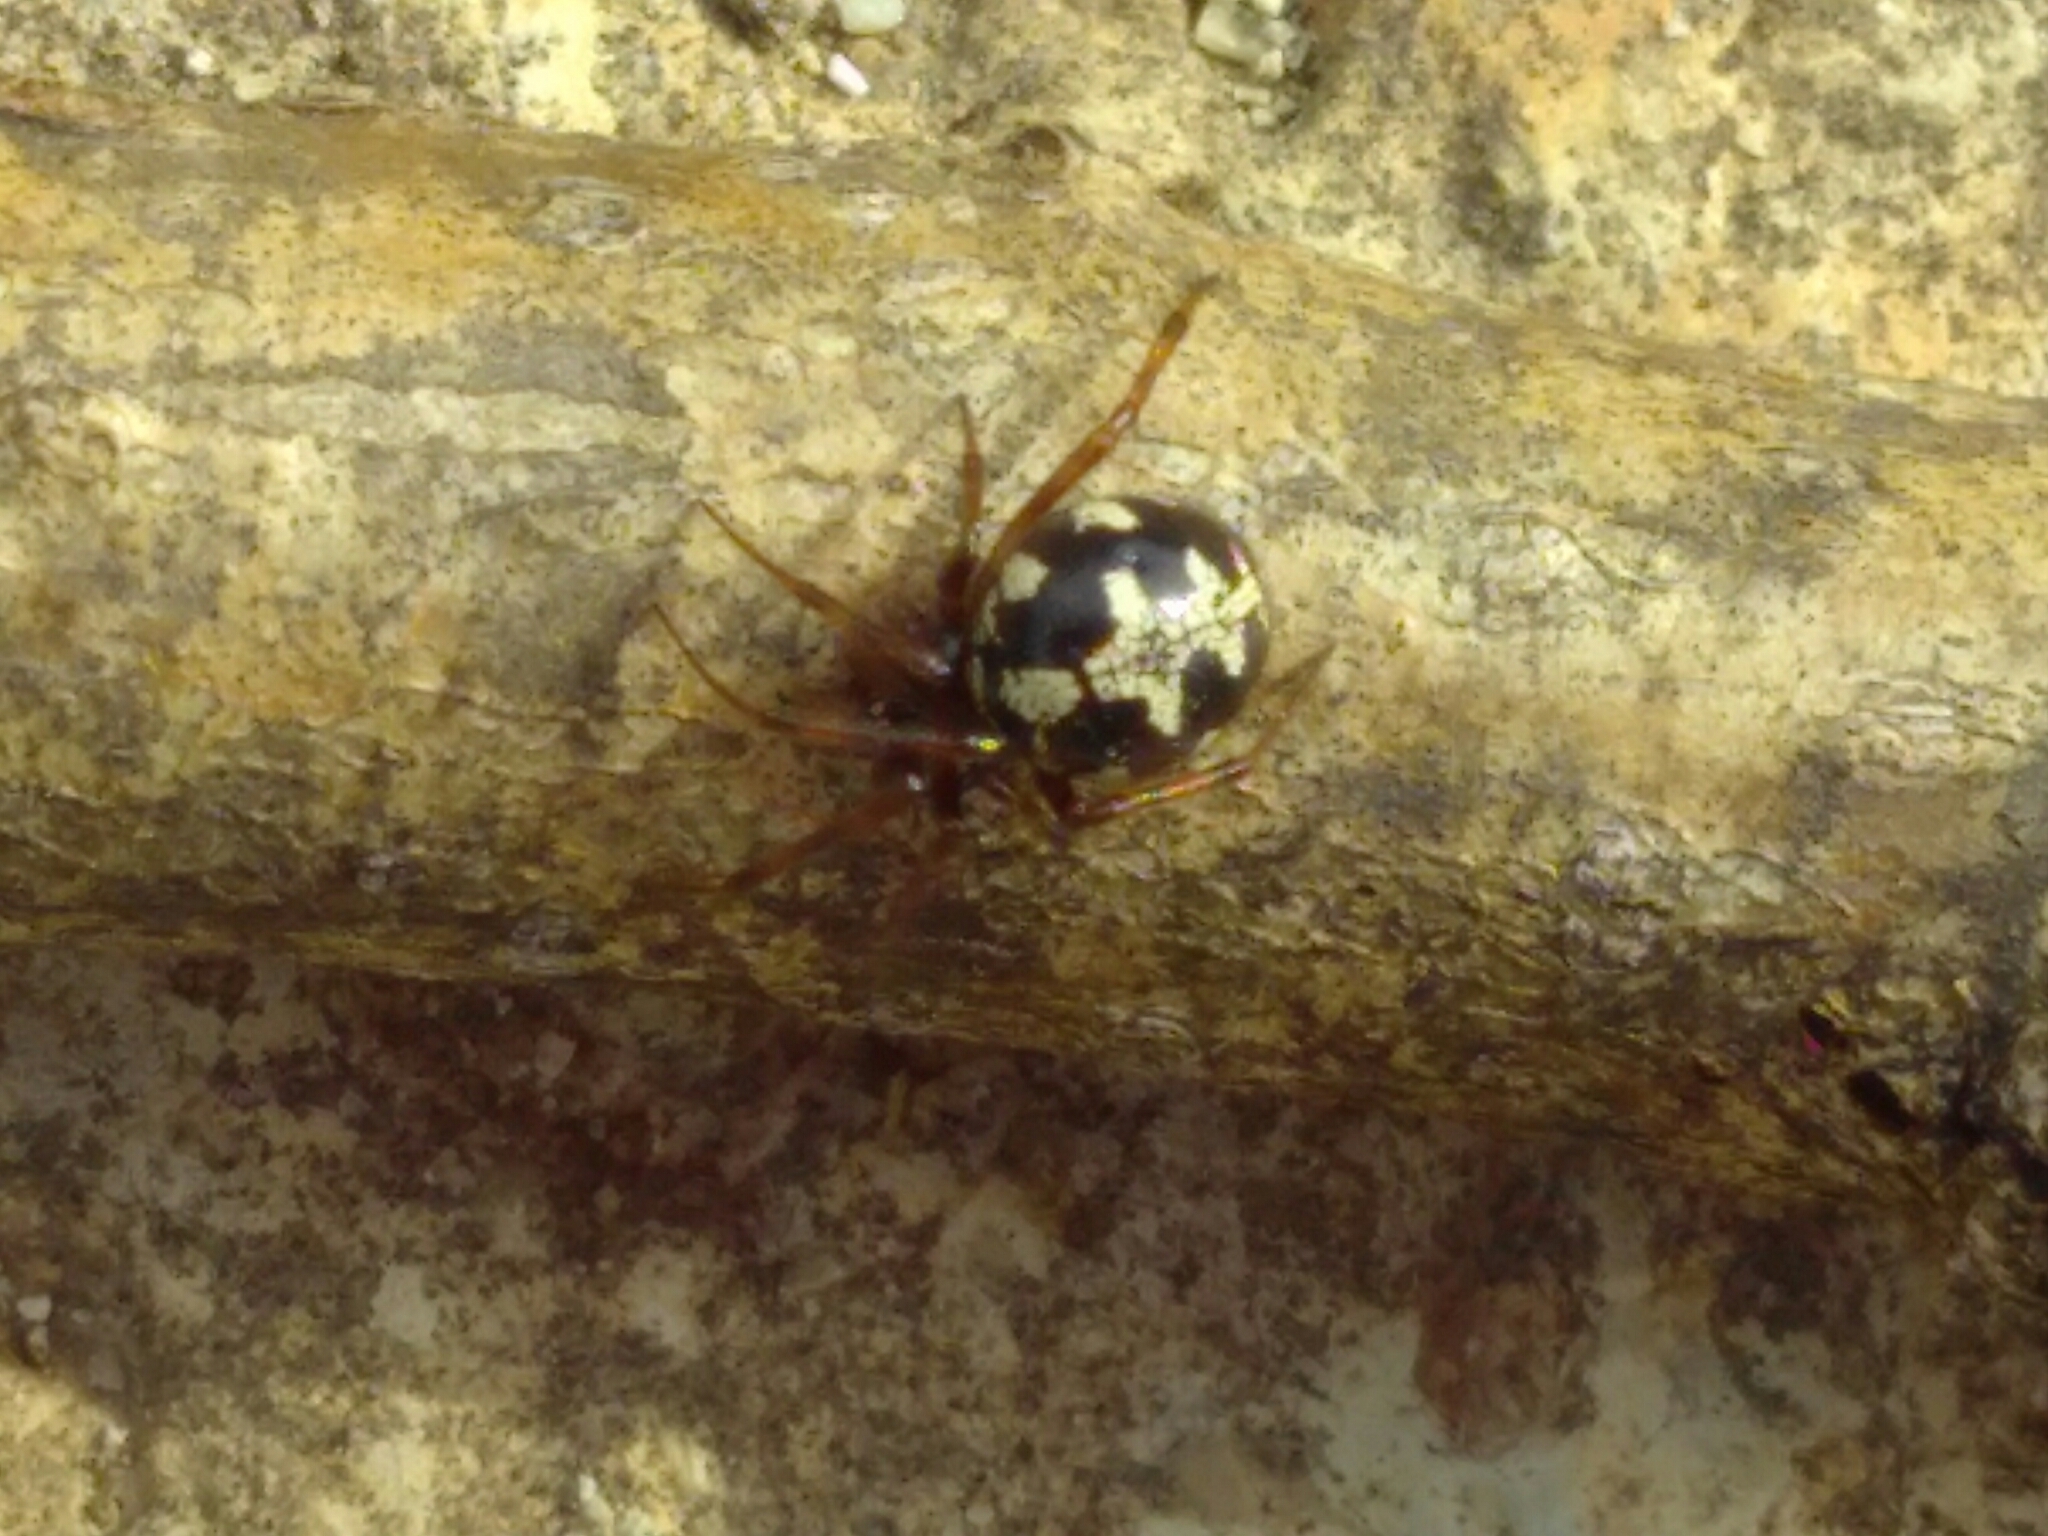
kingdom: Animalia
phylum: Arthropoda
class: Arachnida
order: Araneae
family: Theridiidae
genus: Steatoda
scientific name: Steatoda triangulosa
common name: Triangulate bud spider
